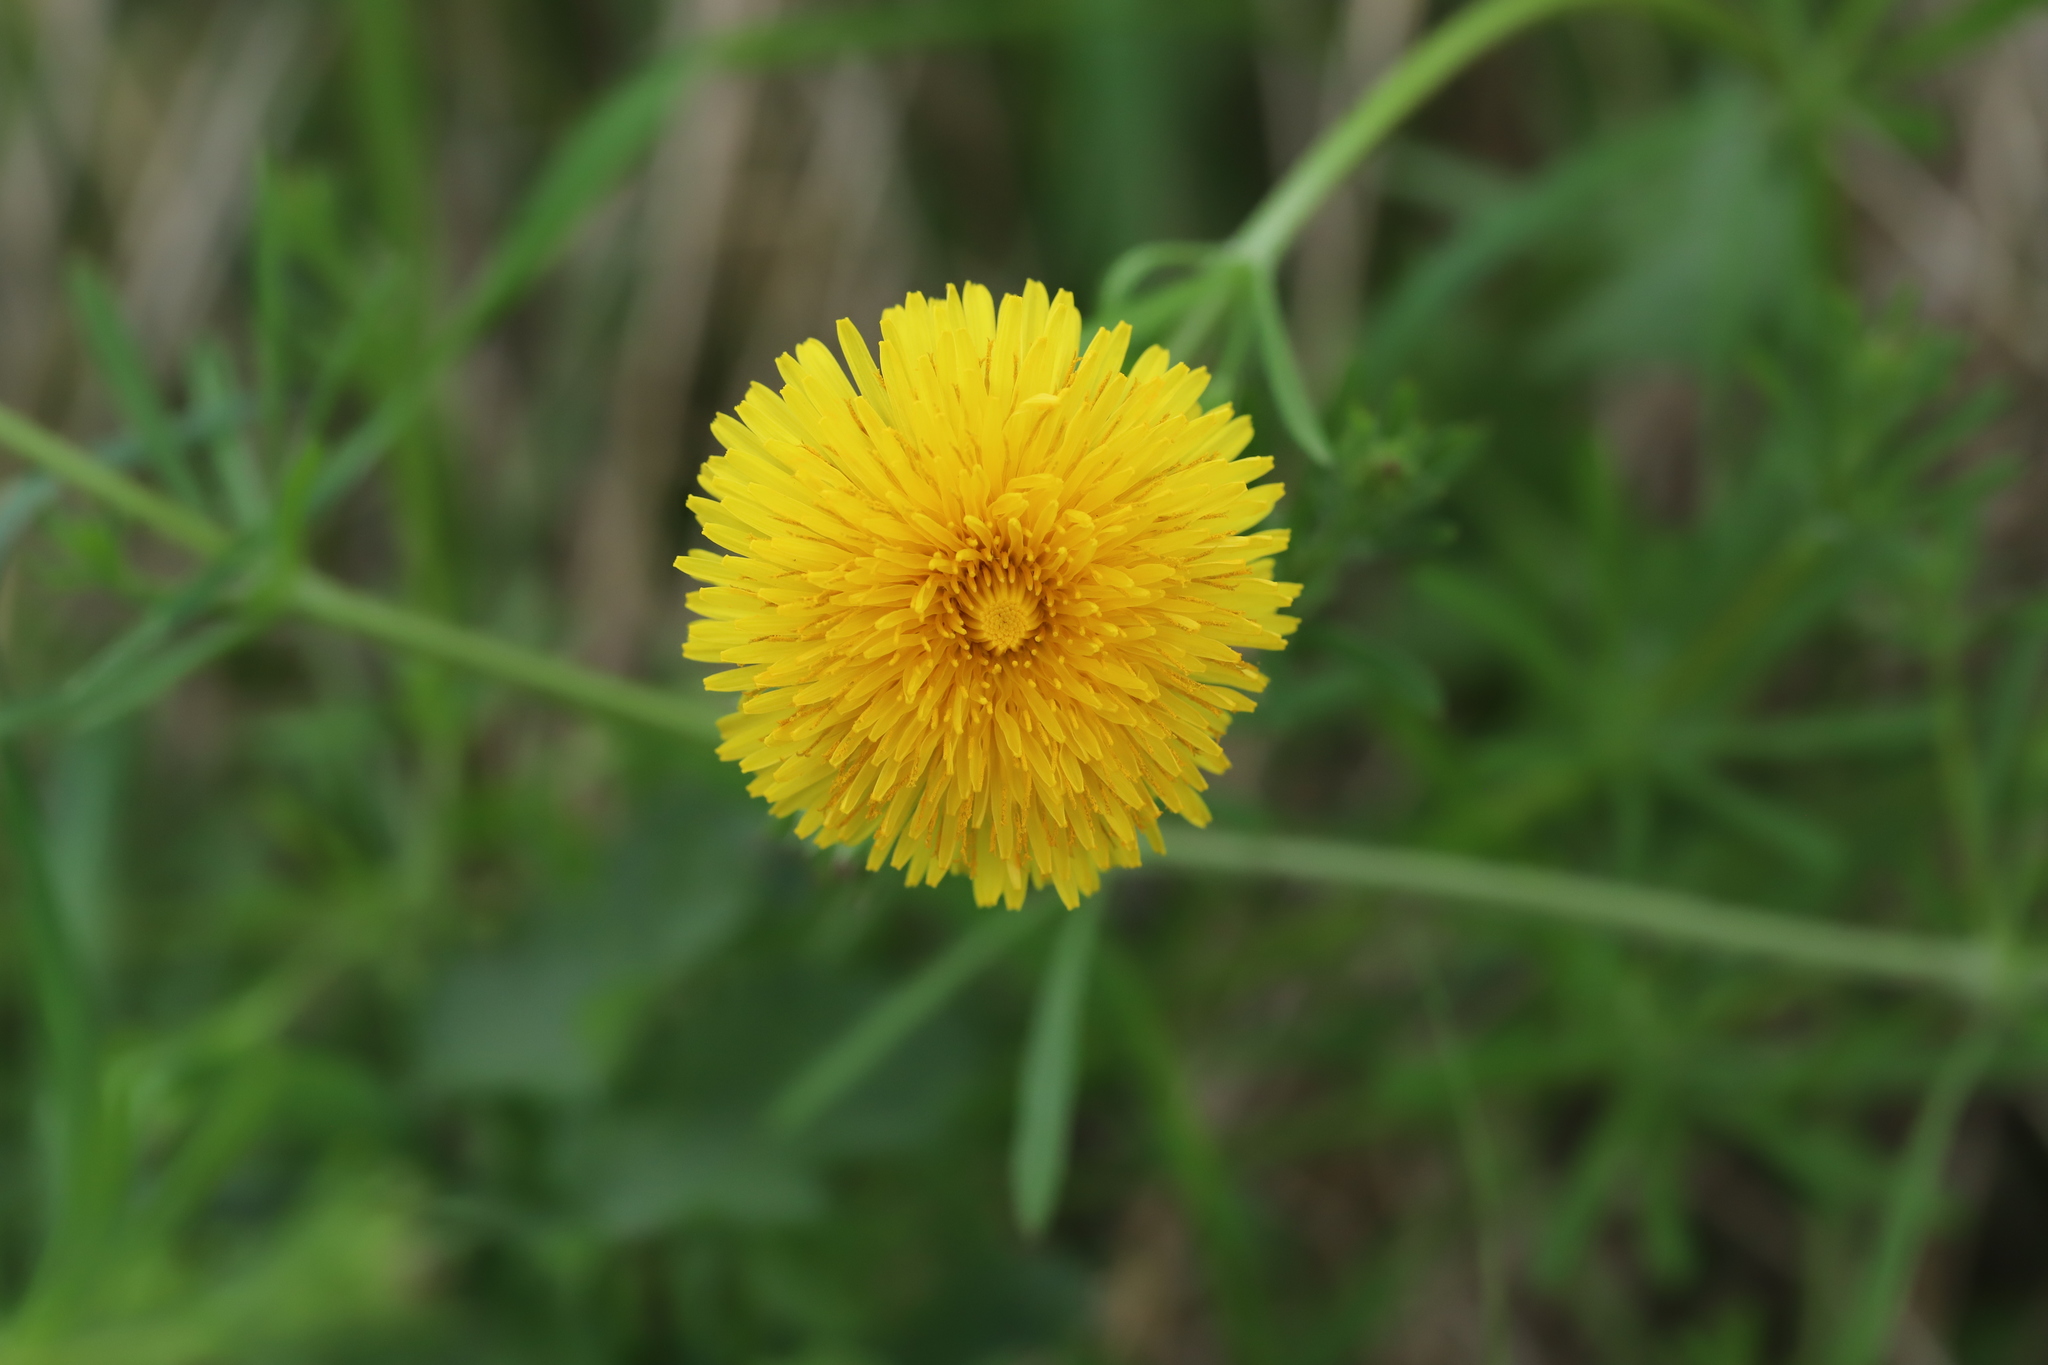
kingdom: Plantae
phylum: Tracheophyta
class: Magnoliopsida
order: Asterales
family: Asteraceae
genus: Taraxacum
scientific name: Taraxacum officinale
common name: Common dandelion
